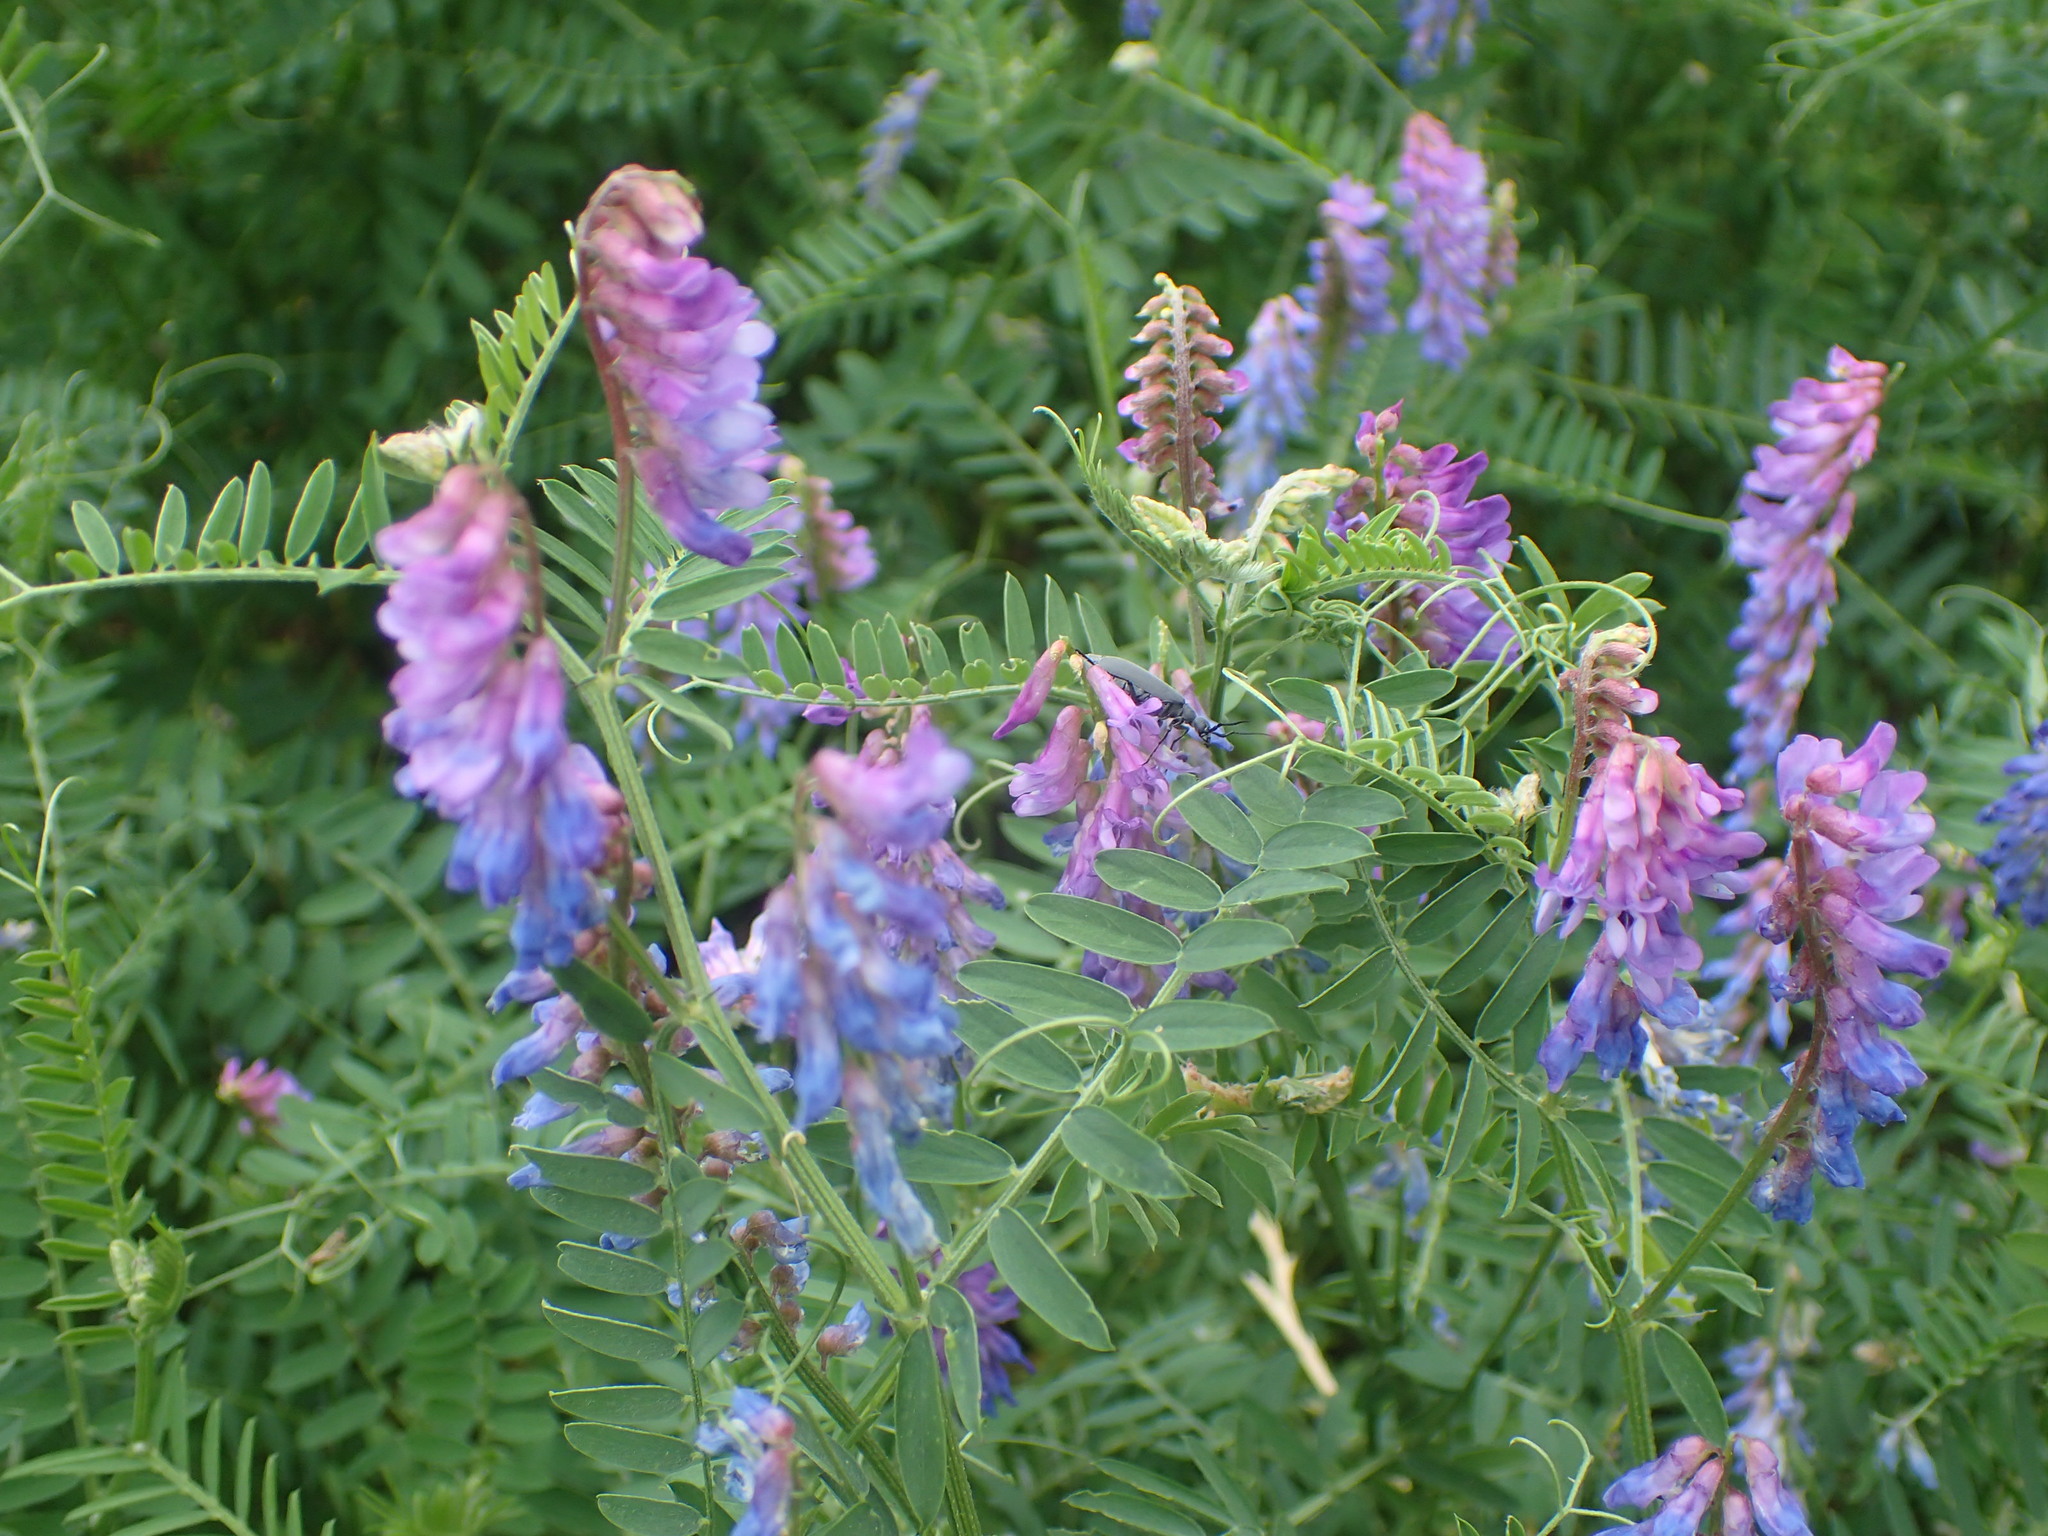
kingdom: Plantae
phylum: Tracheophyta
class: Magnoliopsida
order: Fabales
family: Fabaceae
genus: Vicia
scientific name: Vicia cracca
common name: Bird vetch
